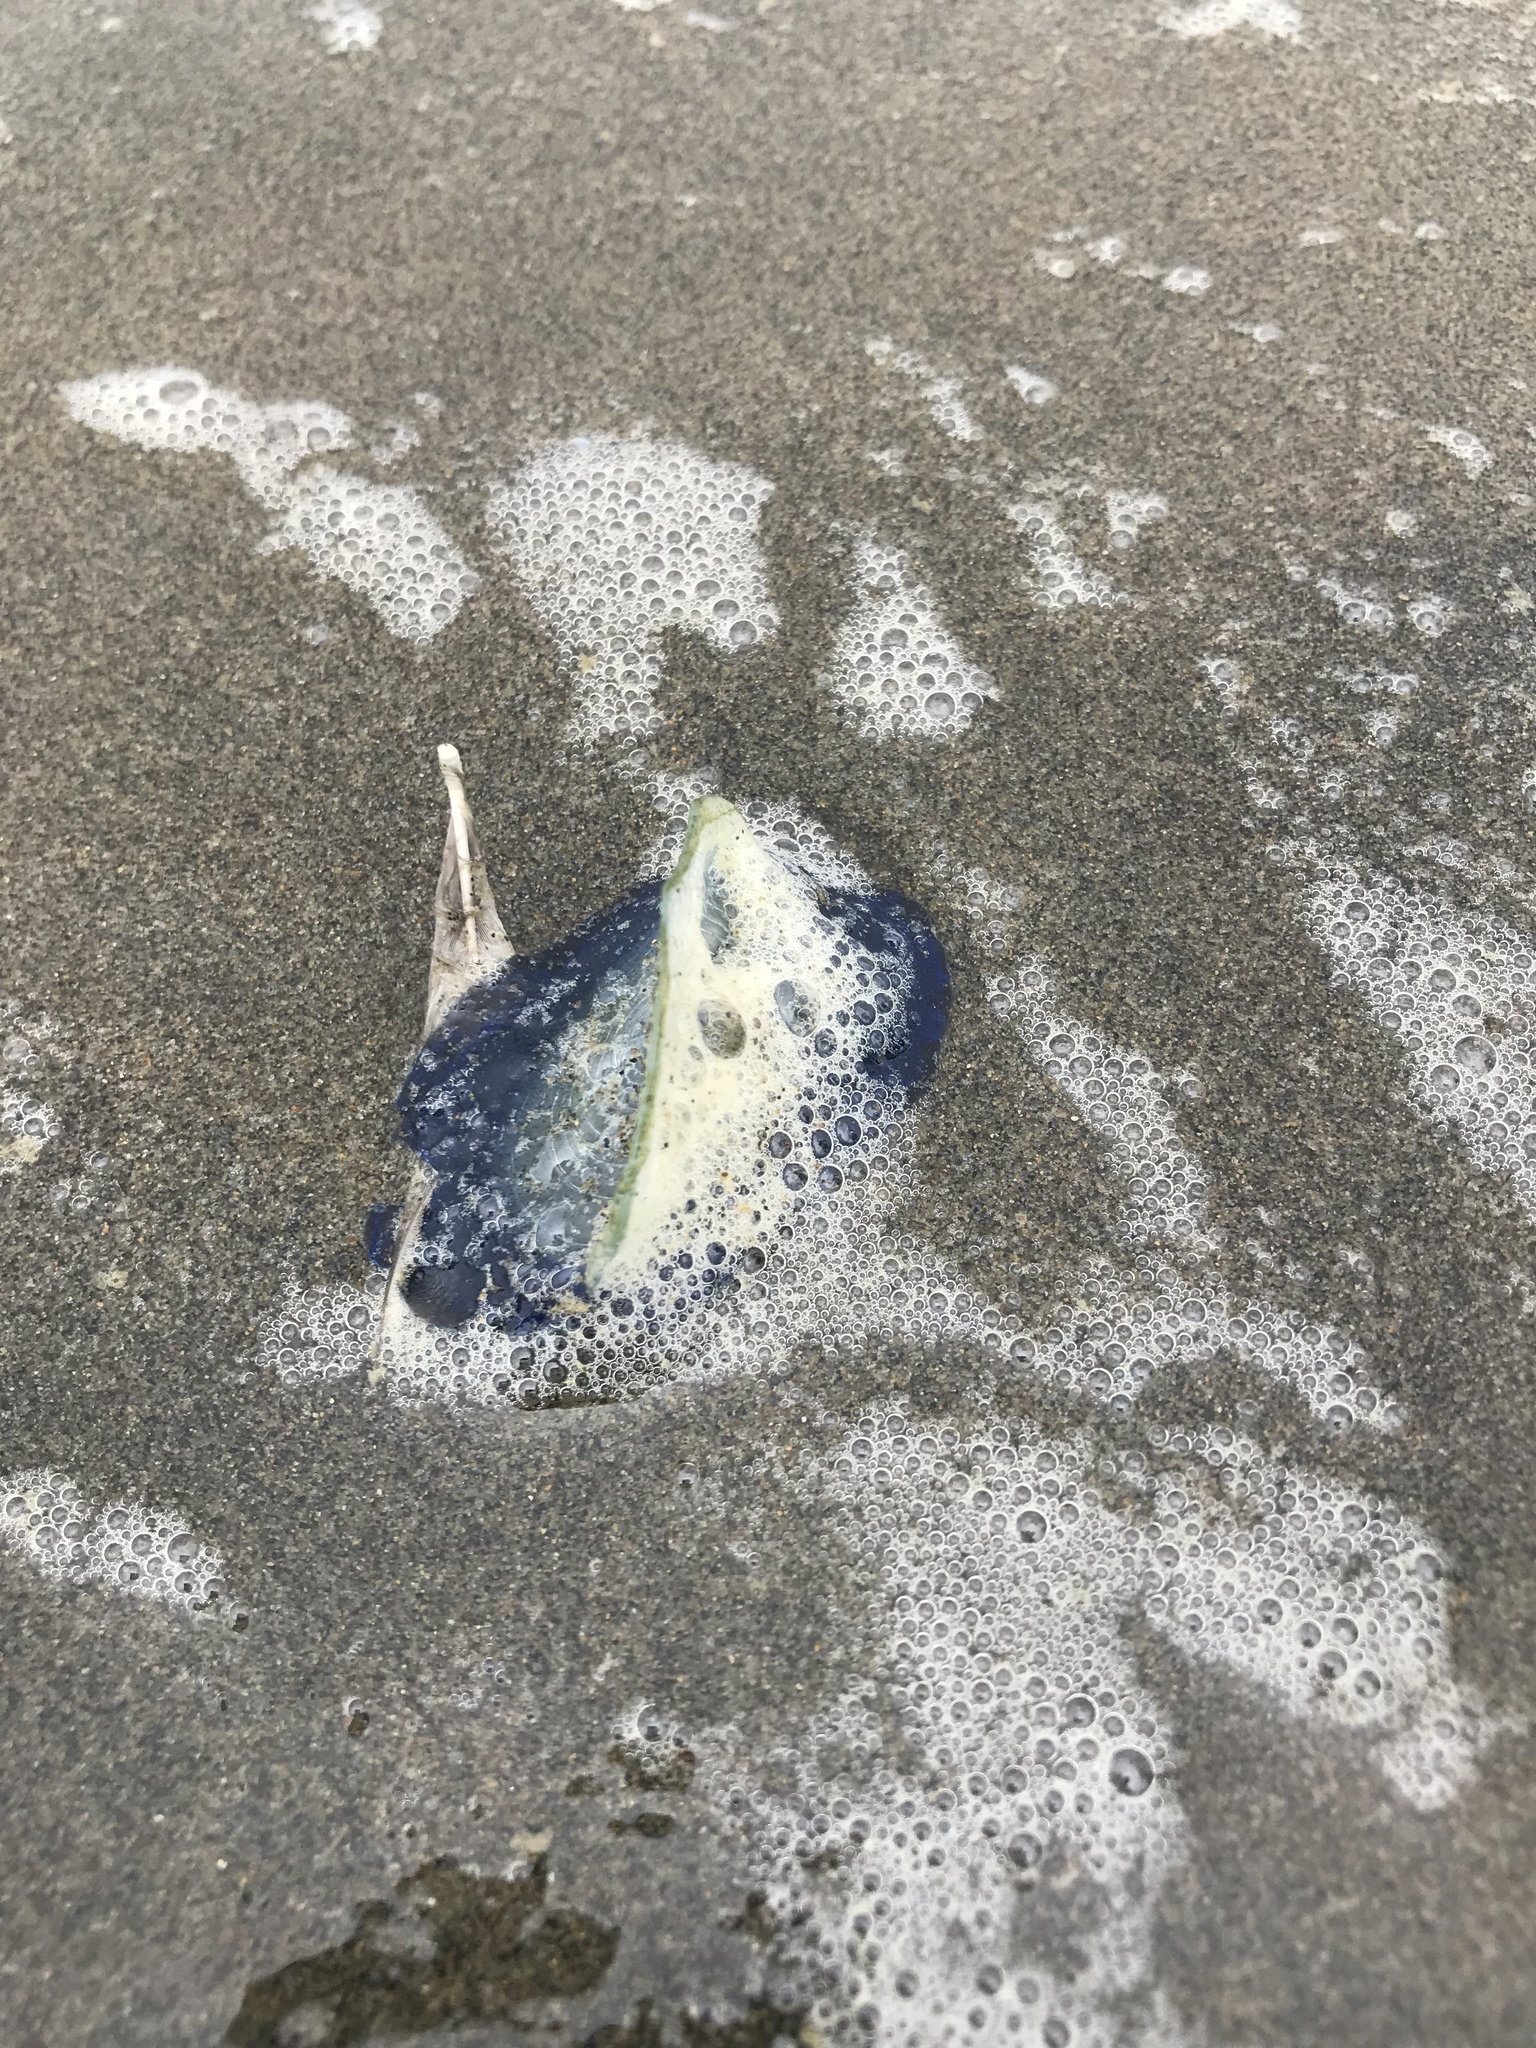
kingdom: Animalia
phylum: Cnidaria
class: Hydrozoa
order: Anthoathecata
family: Porpitidae
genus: Velella
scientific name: Velella velella
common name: By-the-wind-sailor
